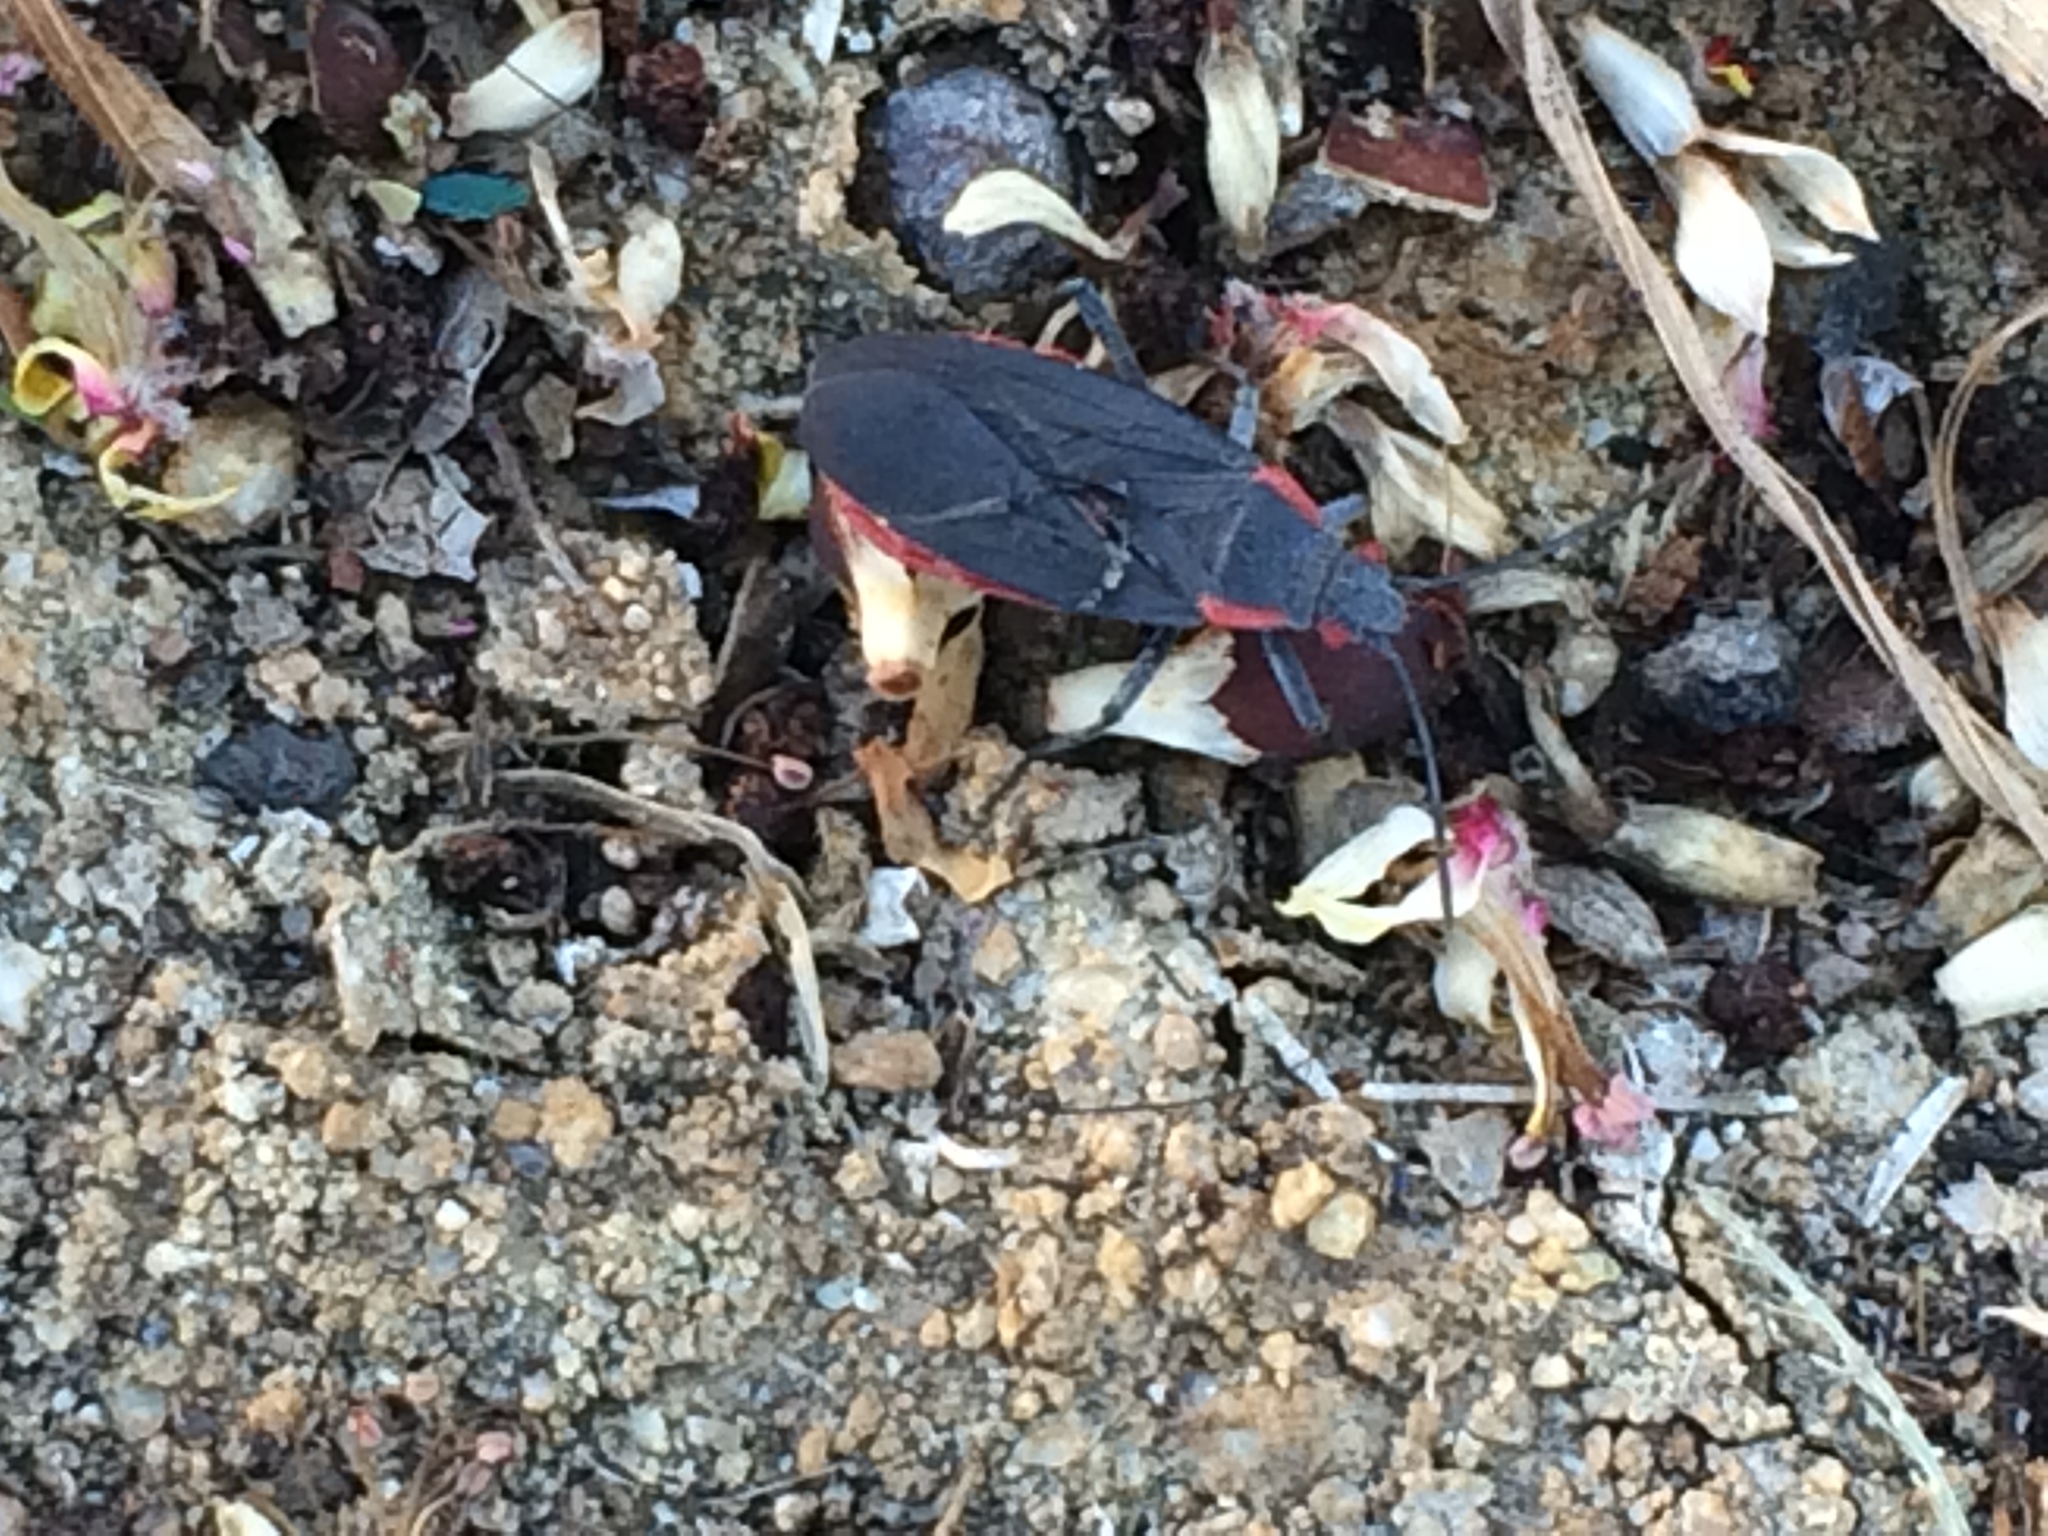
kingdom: Animalia
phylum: Arthropoda
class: Insecta
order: Hemiptera
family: Rhopalidae
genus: Jadera
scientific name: Jadera haematoloma
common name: Red-shouldered bug
